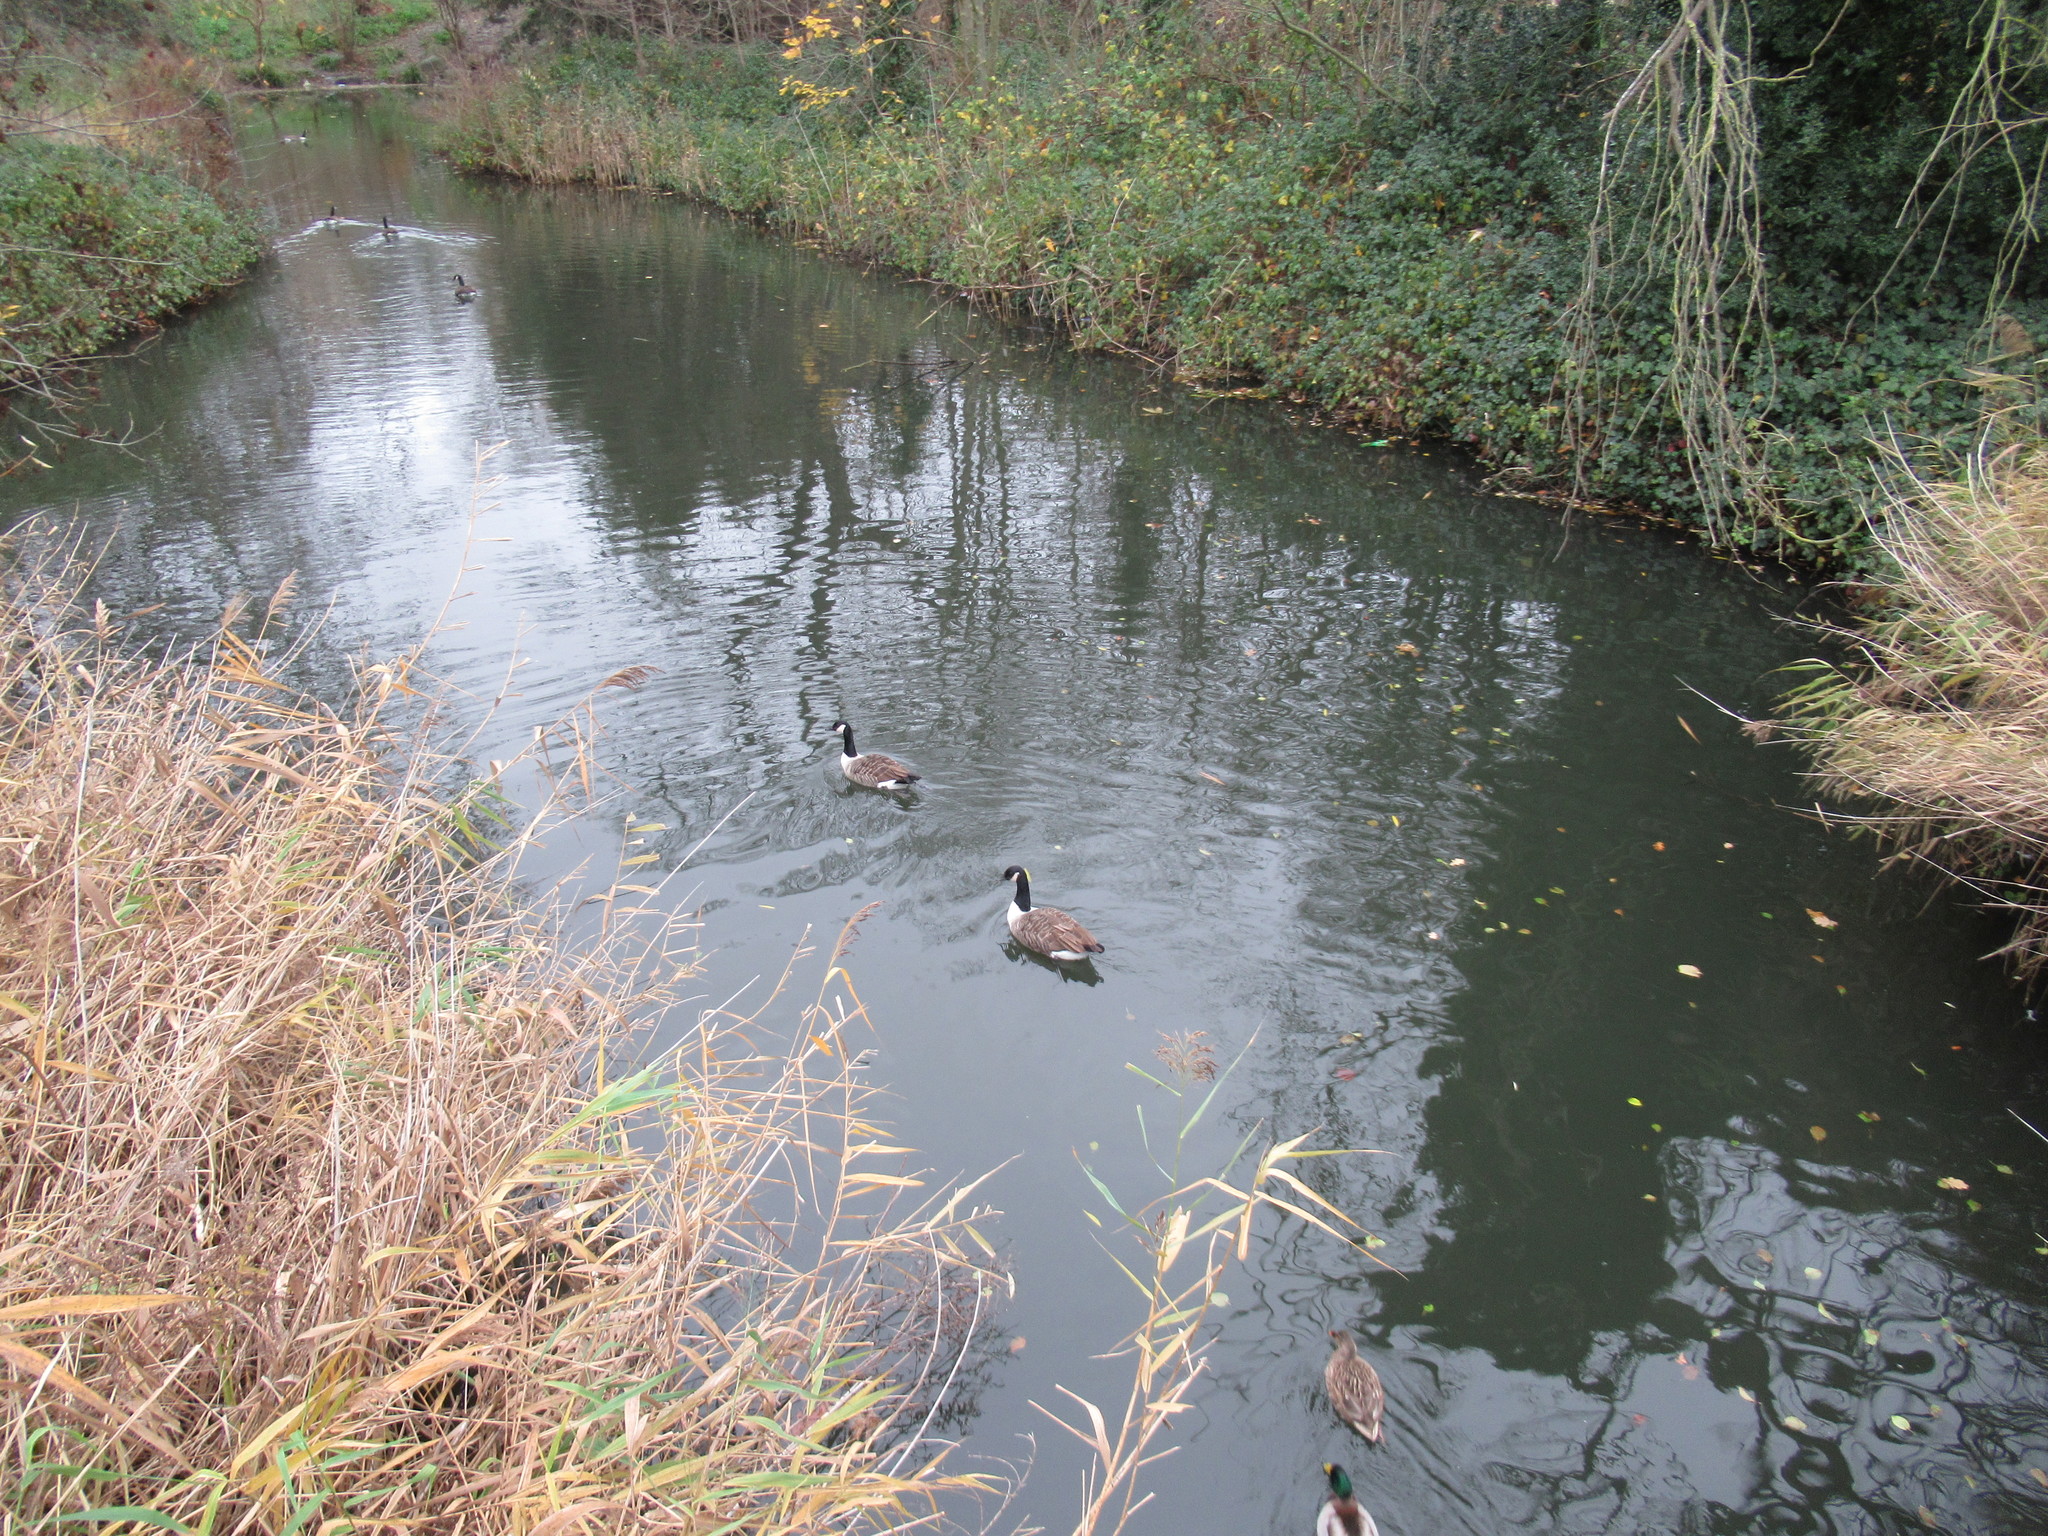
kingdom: Animalia
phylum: Chordata
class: Aves
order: Anseriformes
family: Anatidae
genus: Branta
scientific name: Branta canadensis
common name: Canada goose
